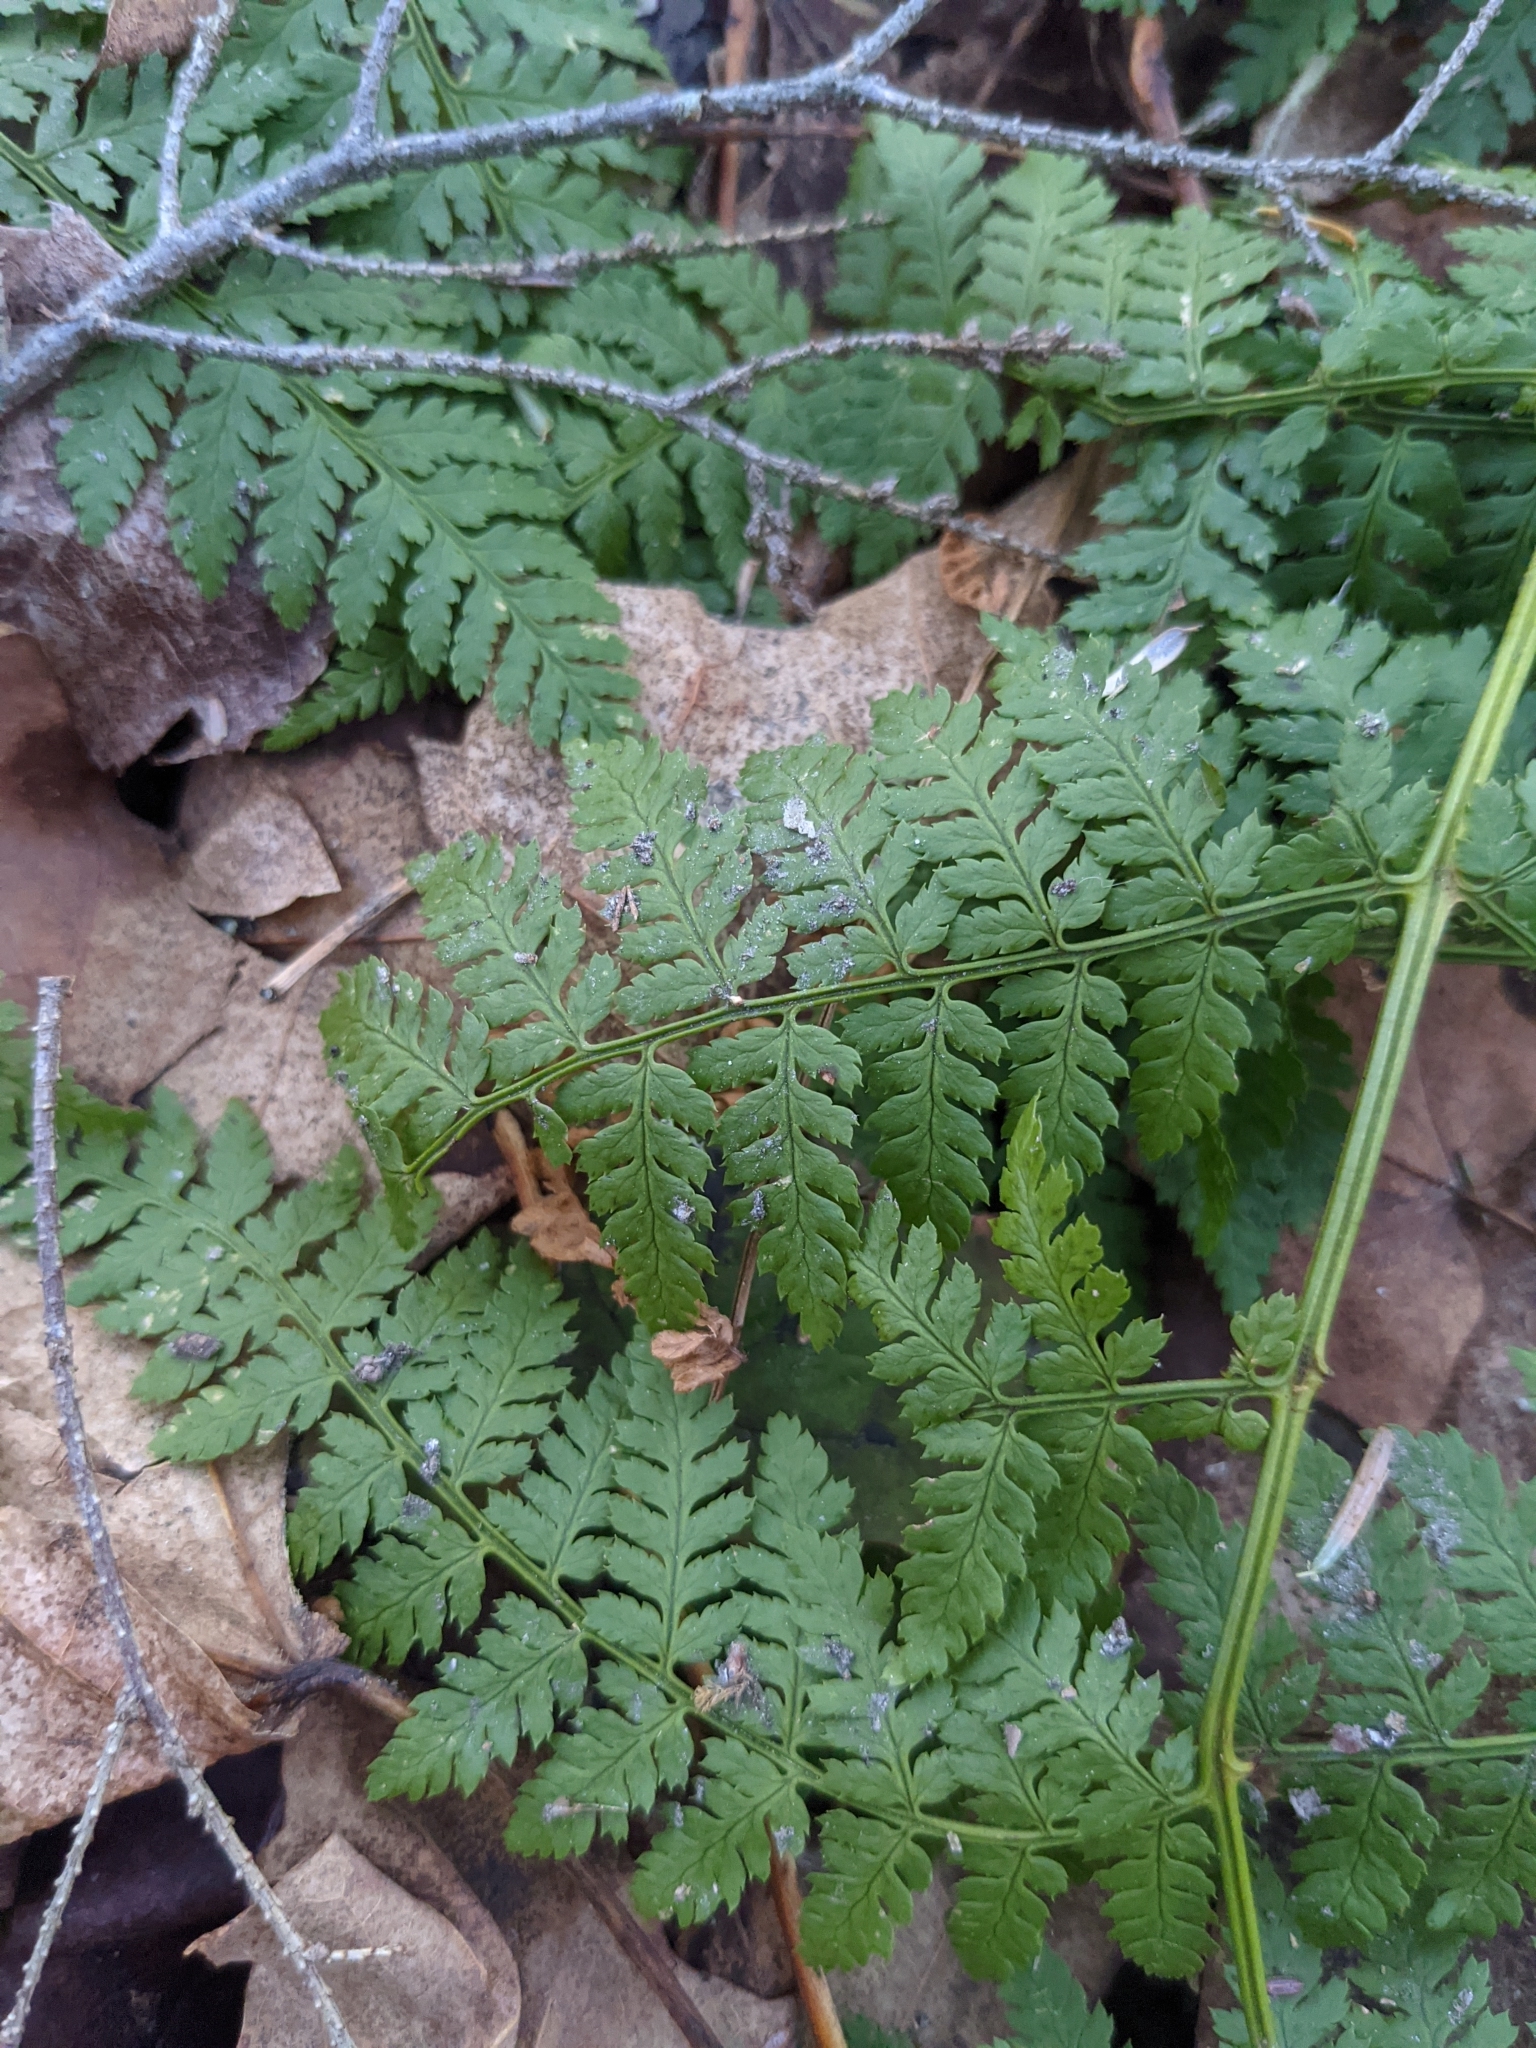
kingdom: Plantae
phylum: Tracheophyta
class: Polypodiopsida
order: Polypodiales
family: Dryopteridaceae
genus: Dryopteris
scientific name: Dryopteris intermedia
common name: Evergreen wood fern
